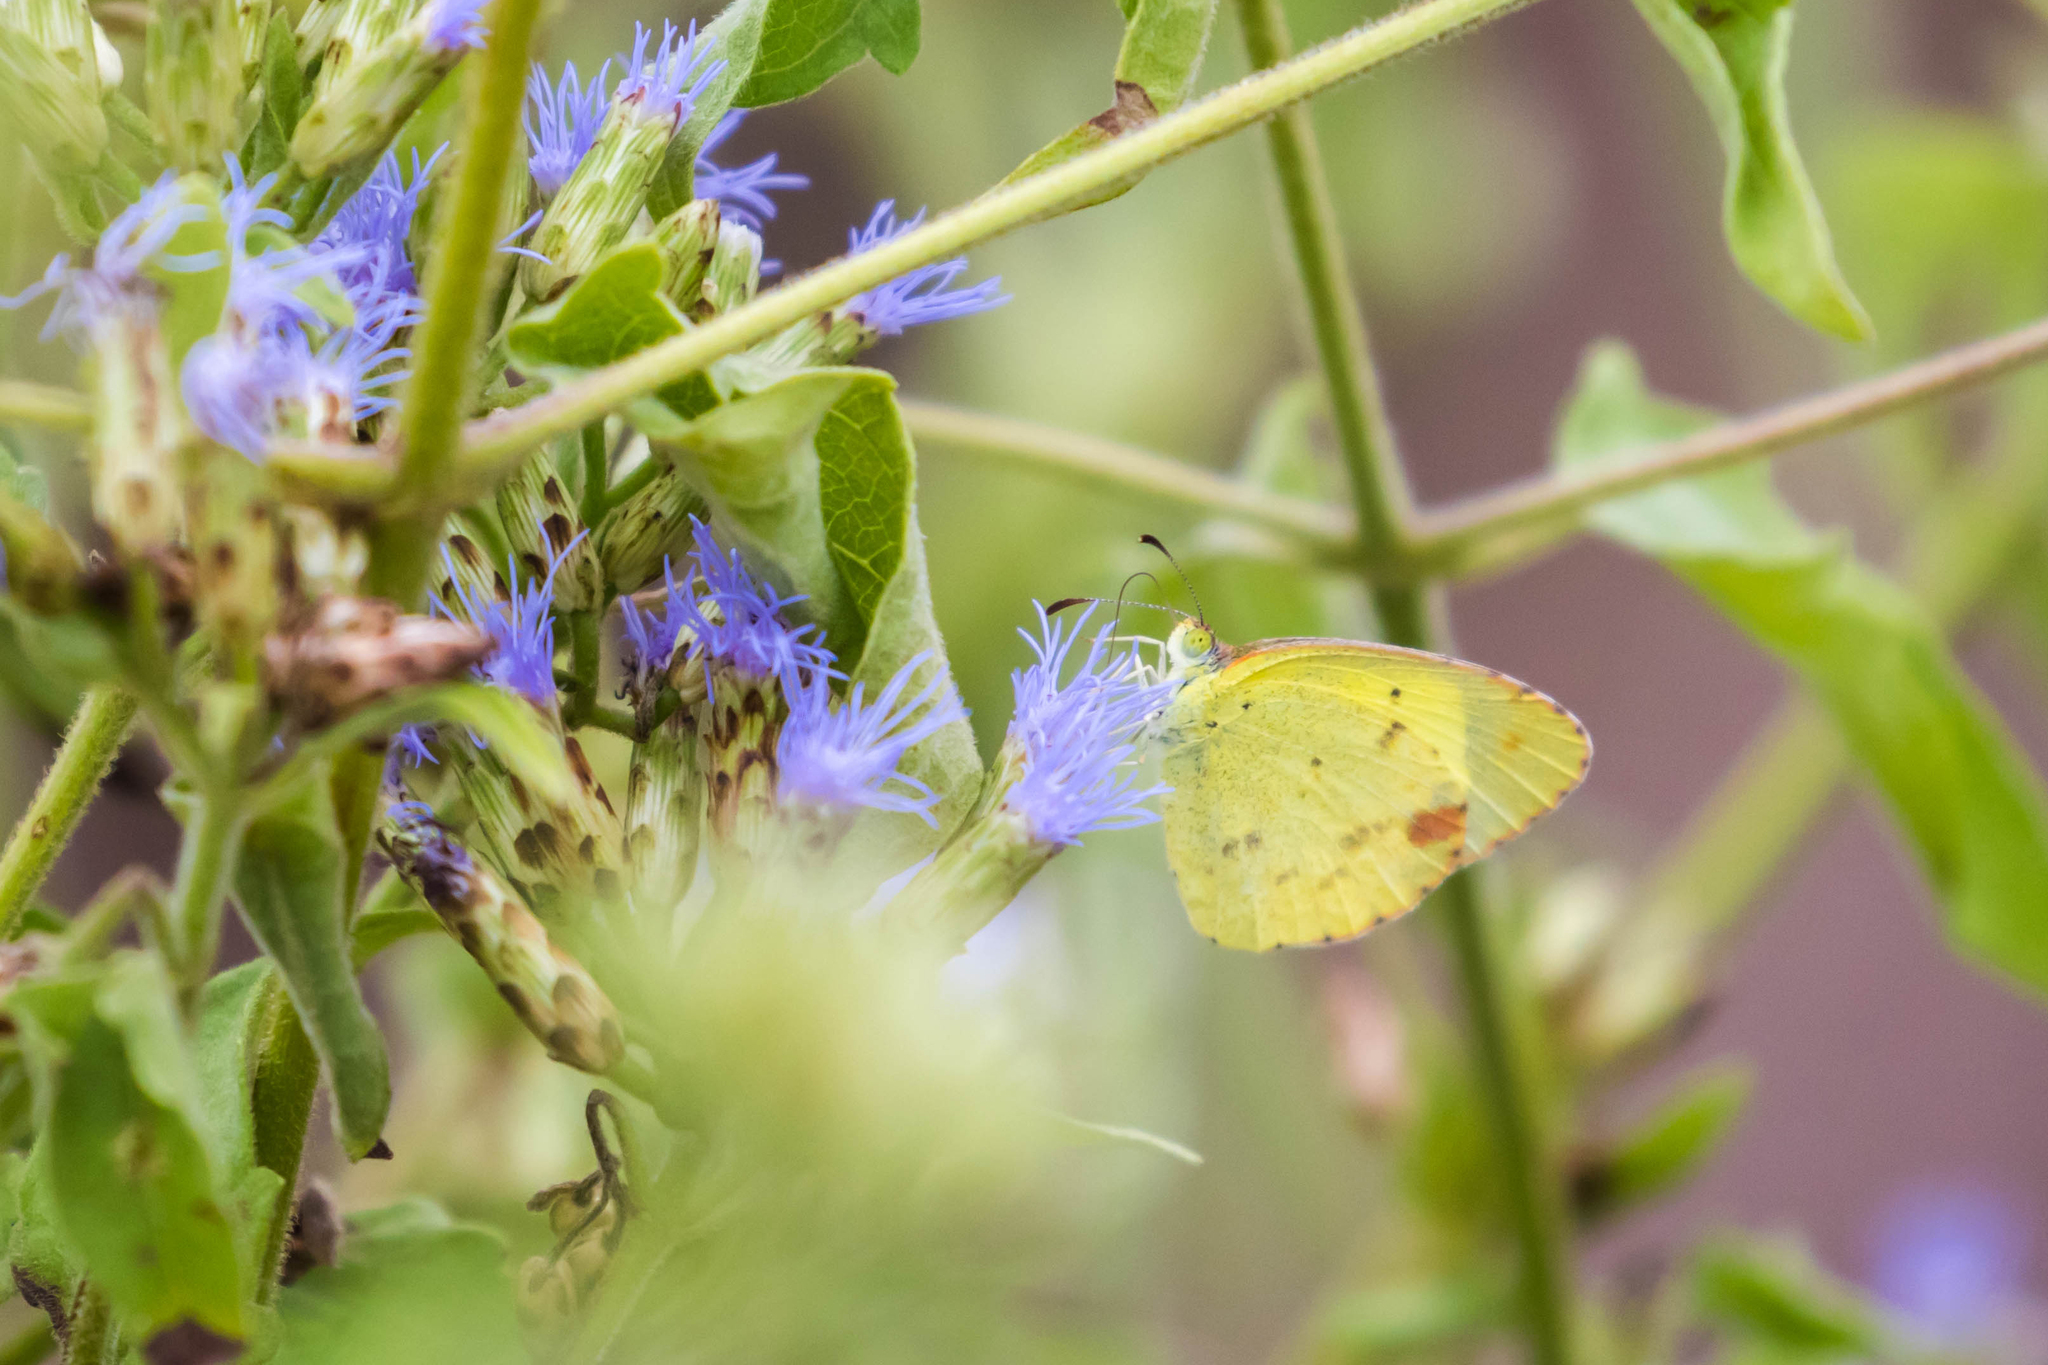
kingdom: Animalia
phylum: Arthropoda
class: Insecta
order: Lepidoptera
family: Pieridae
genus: Pyrisitia
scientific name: Pyrisitia lisa
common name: Little yellow
